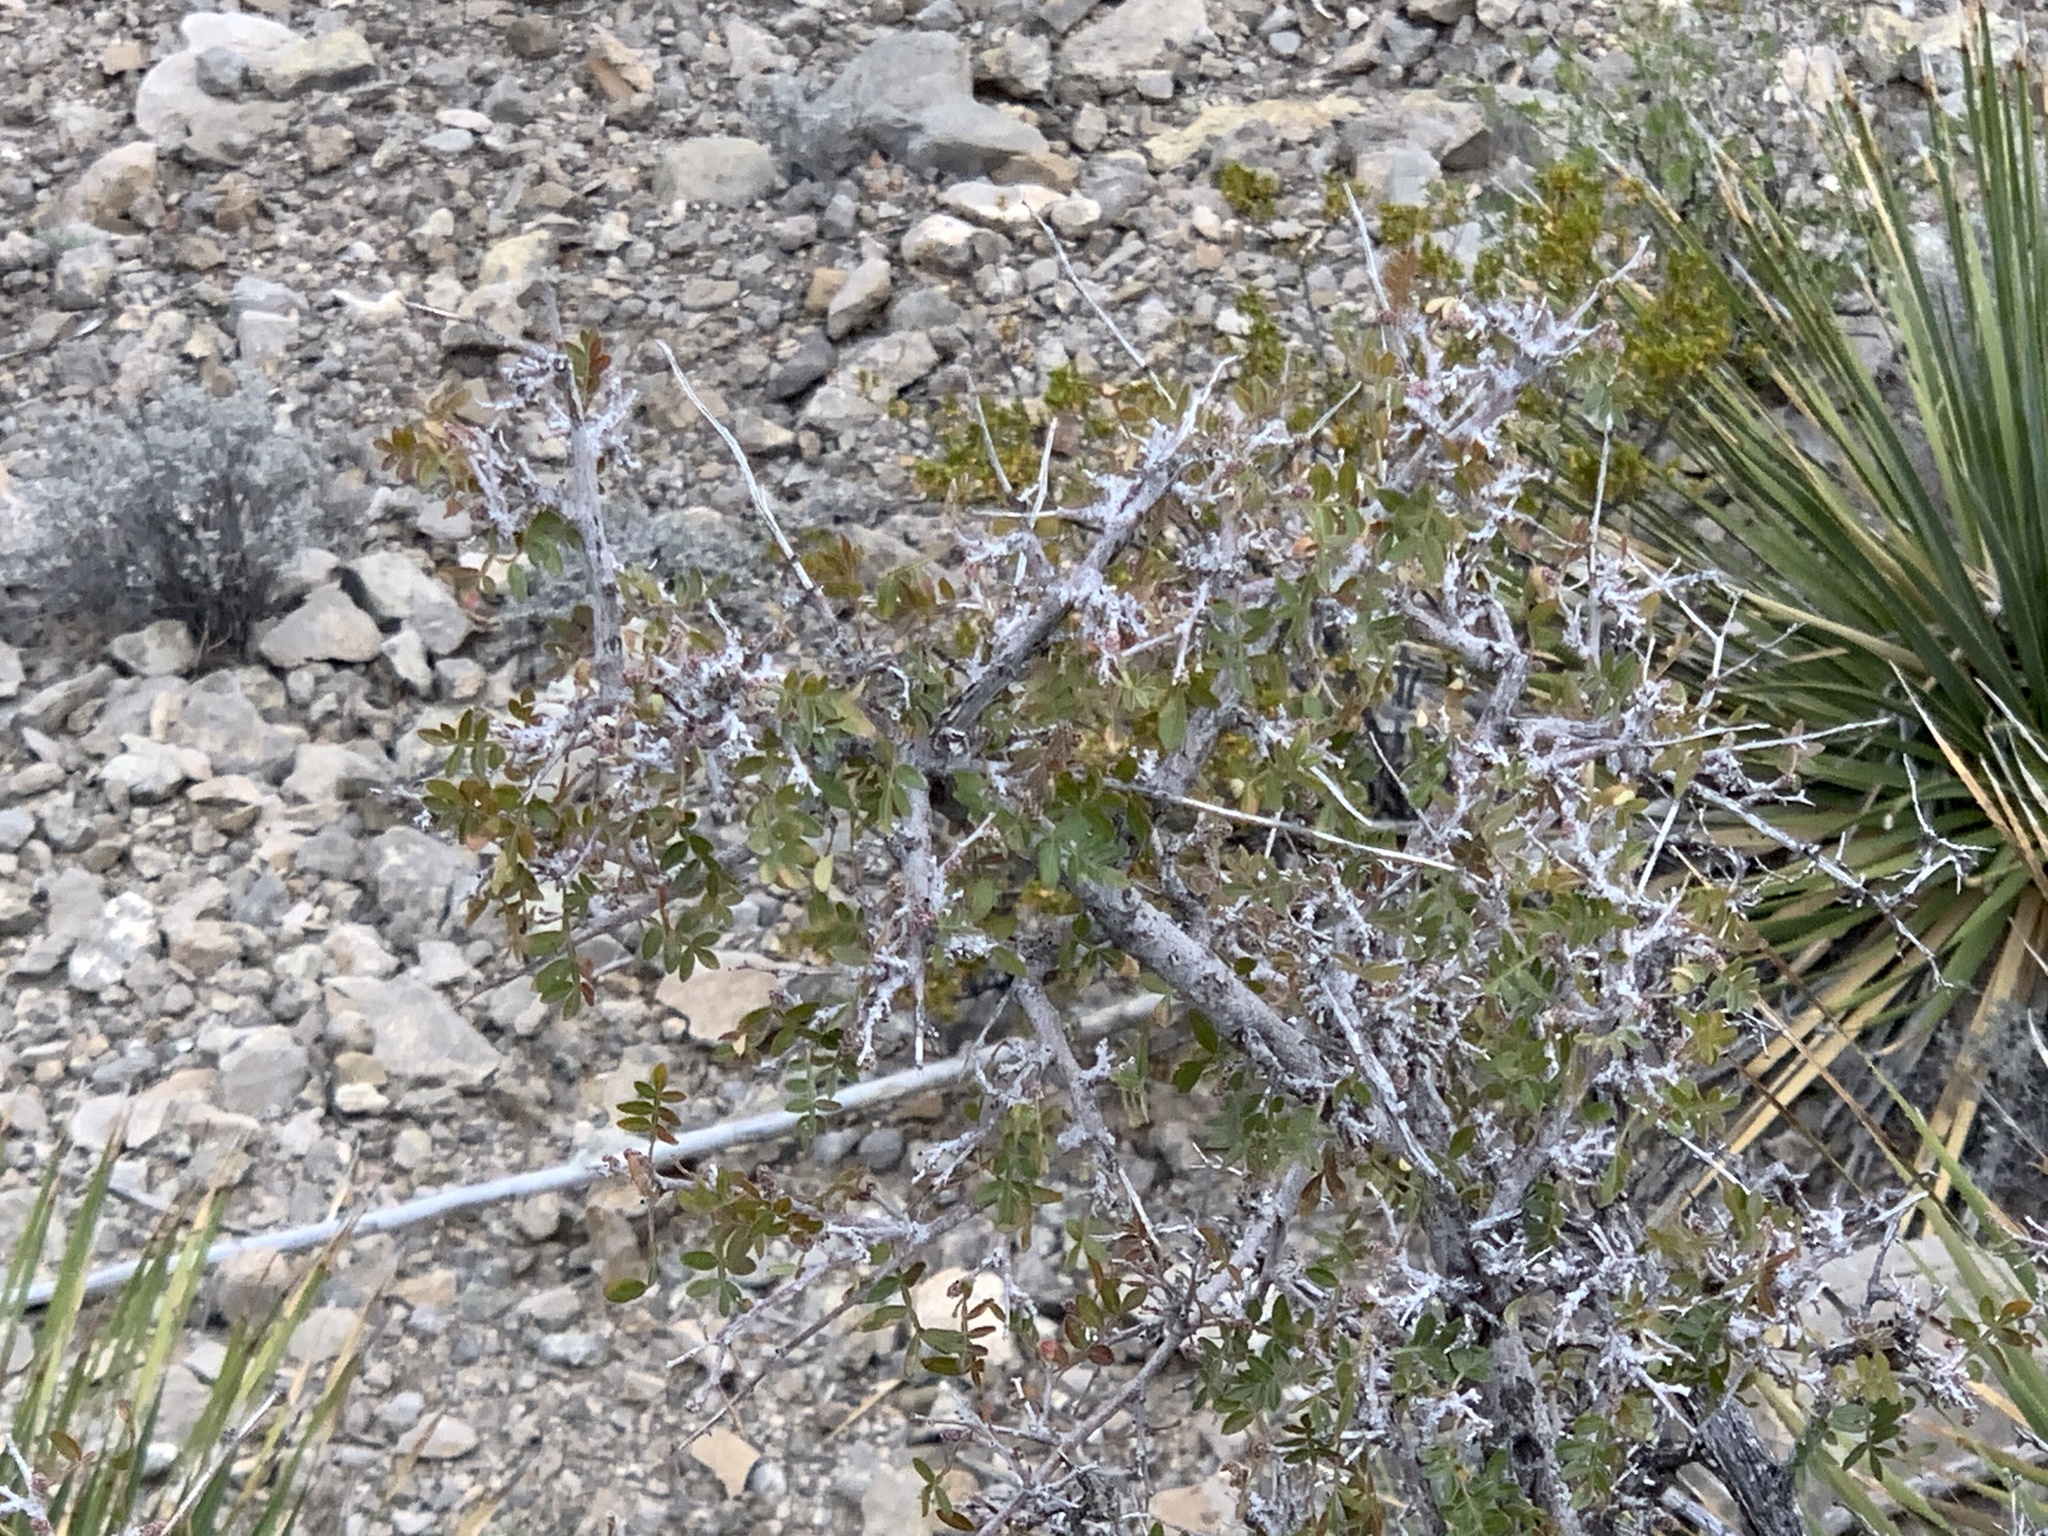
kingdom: Plantae
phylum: Tracheophyta
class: Magnoliopsida
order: Sapindales
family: Anacardiaceae
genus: Rhus
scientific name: Rhus microphylla
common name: Desert sumac
